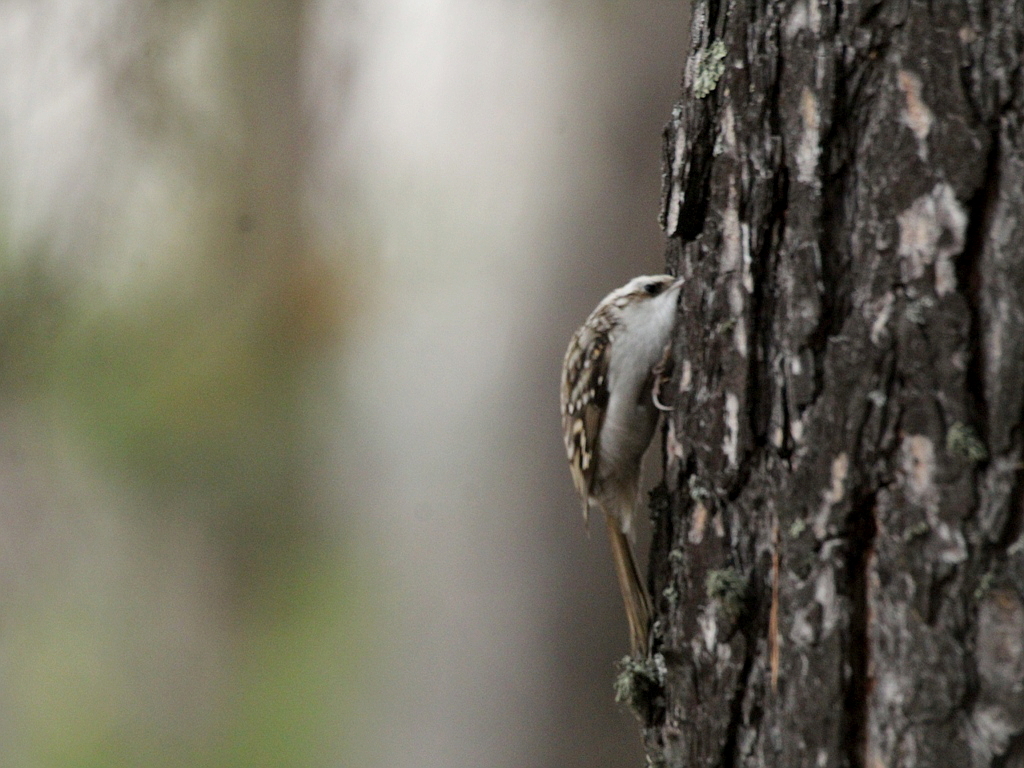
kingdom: Animalia
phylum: Chordata
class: Aves
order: Passeriformes
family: Certhiidae
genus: Certhia
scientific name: Certhia familiaris
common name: Eurasian treecreeper
